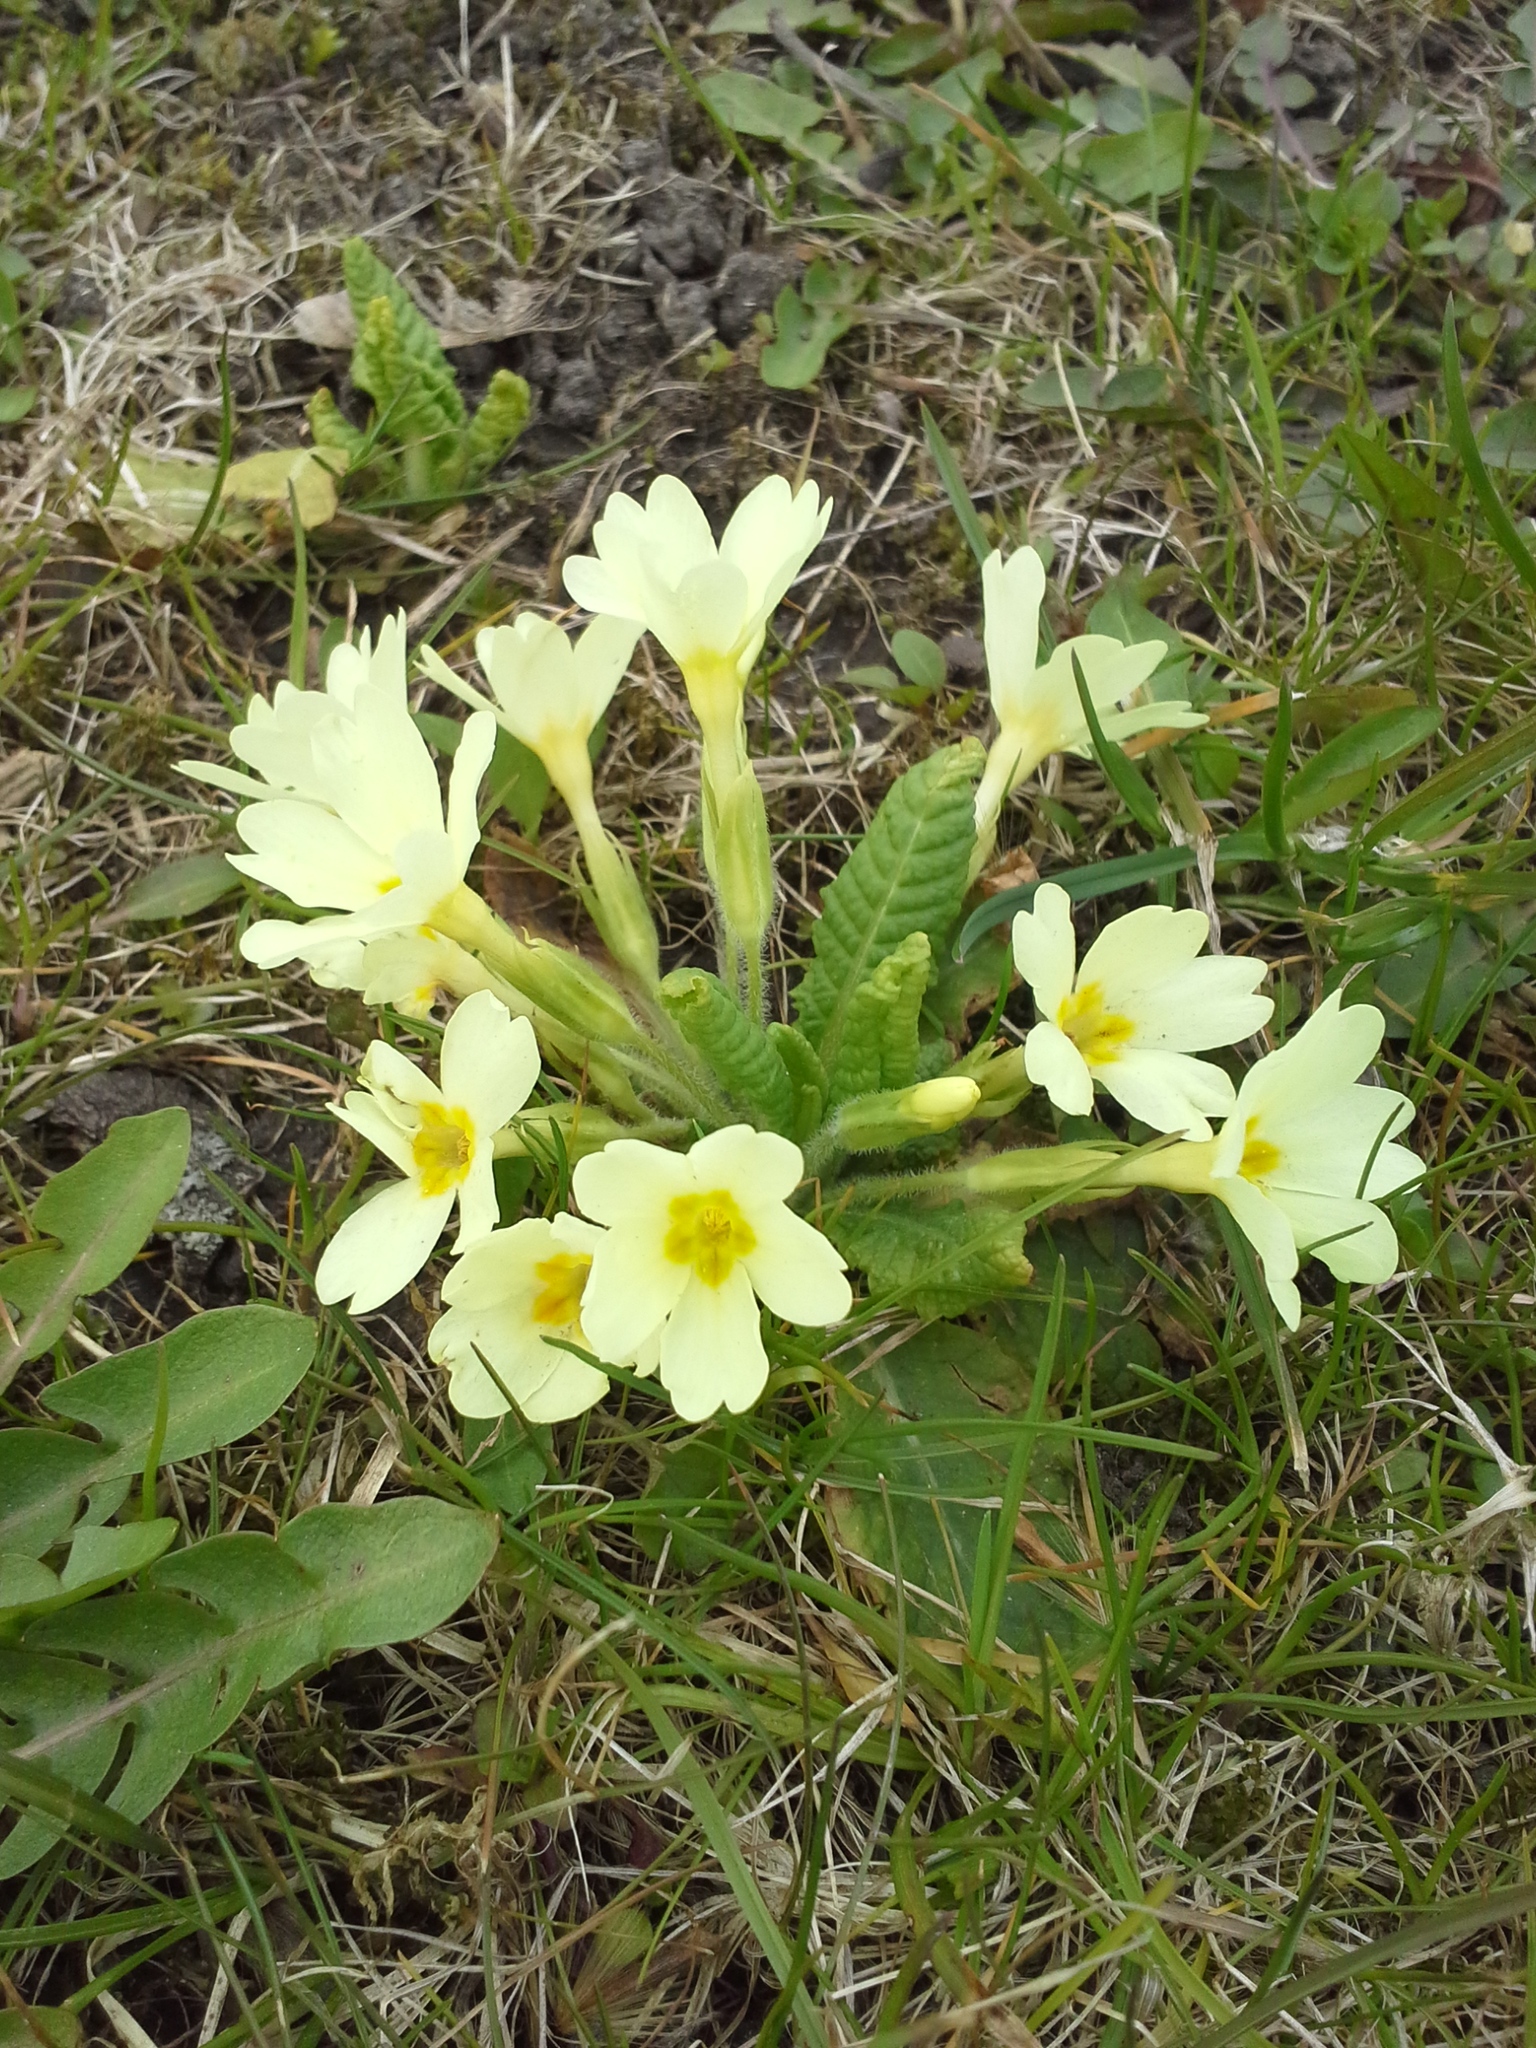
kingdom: Plantae
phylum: Tracheophyta
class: Magnoliopsida
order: Ericales
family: Primulaceae
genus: Primula
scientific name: Primula vulgaris
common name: Primrose
